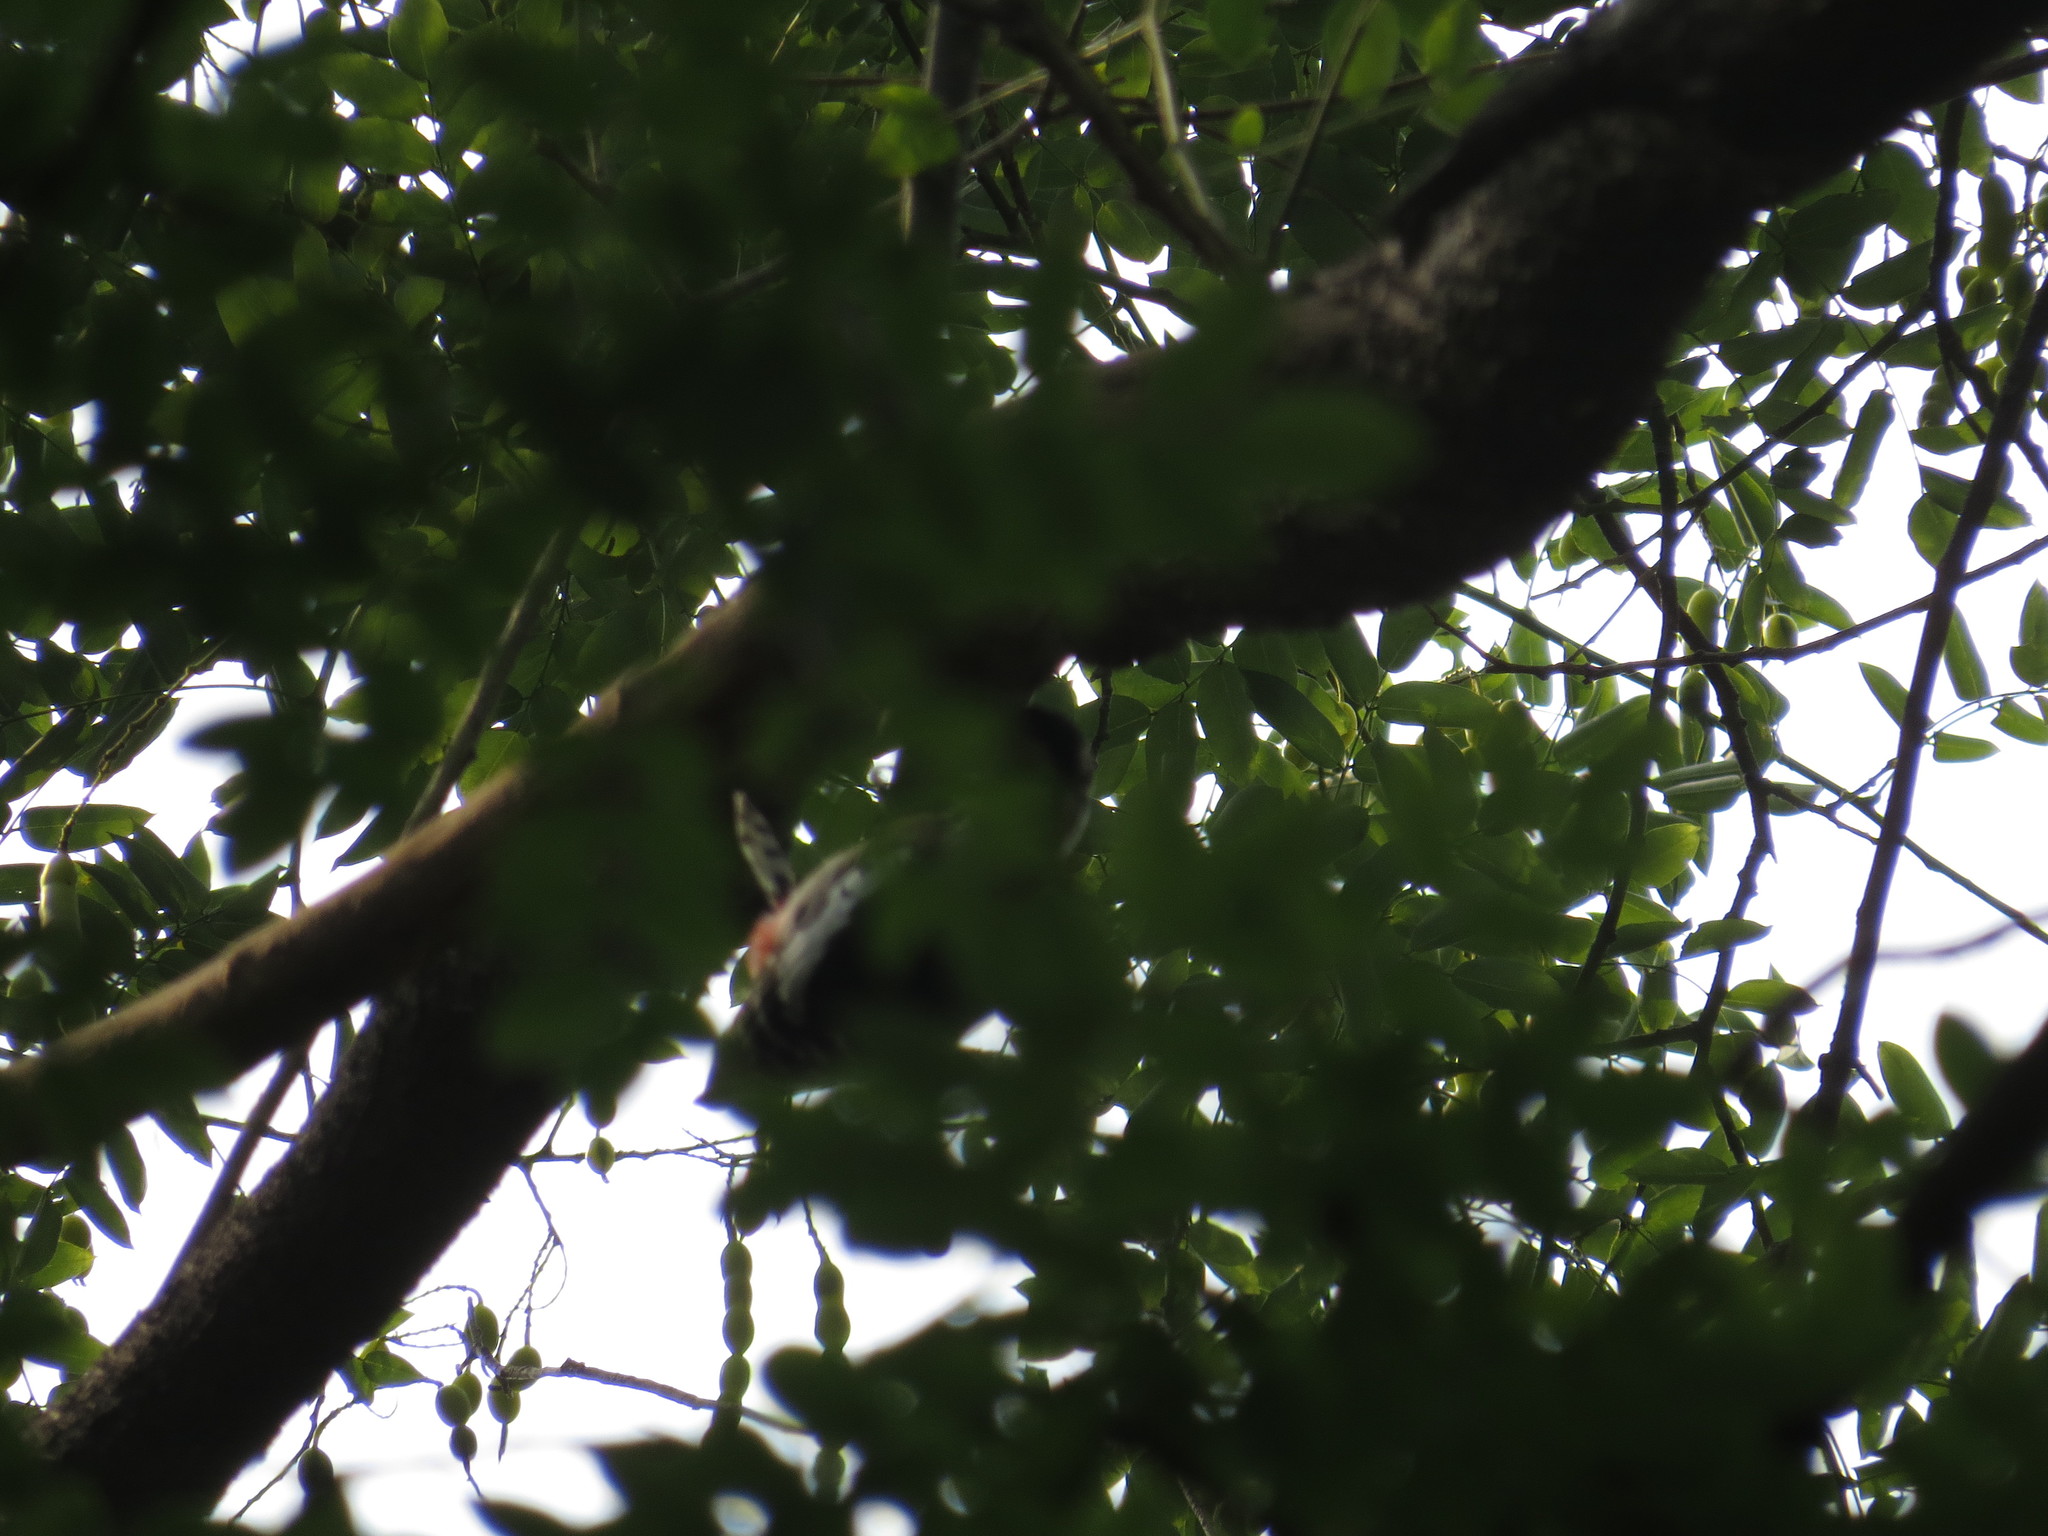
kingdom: Animalia
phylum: Chordata
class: Aves
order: Piciformes
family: Picidae
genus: Dendrocopos
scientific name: Dendrocopos major
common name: Great spotted woodpecker
